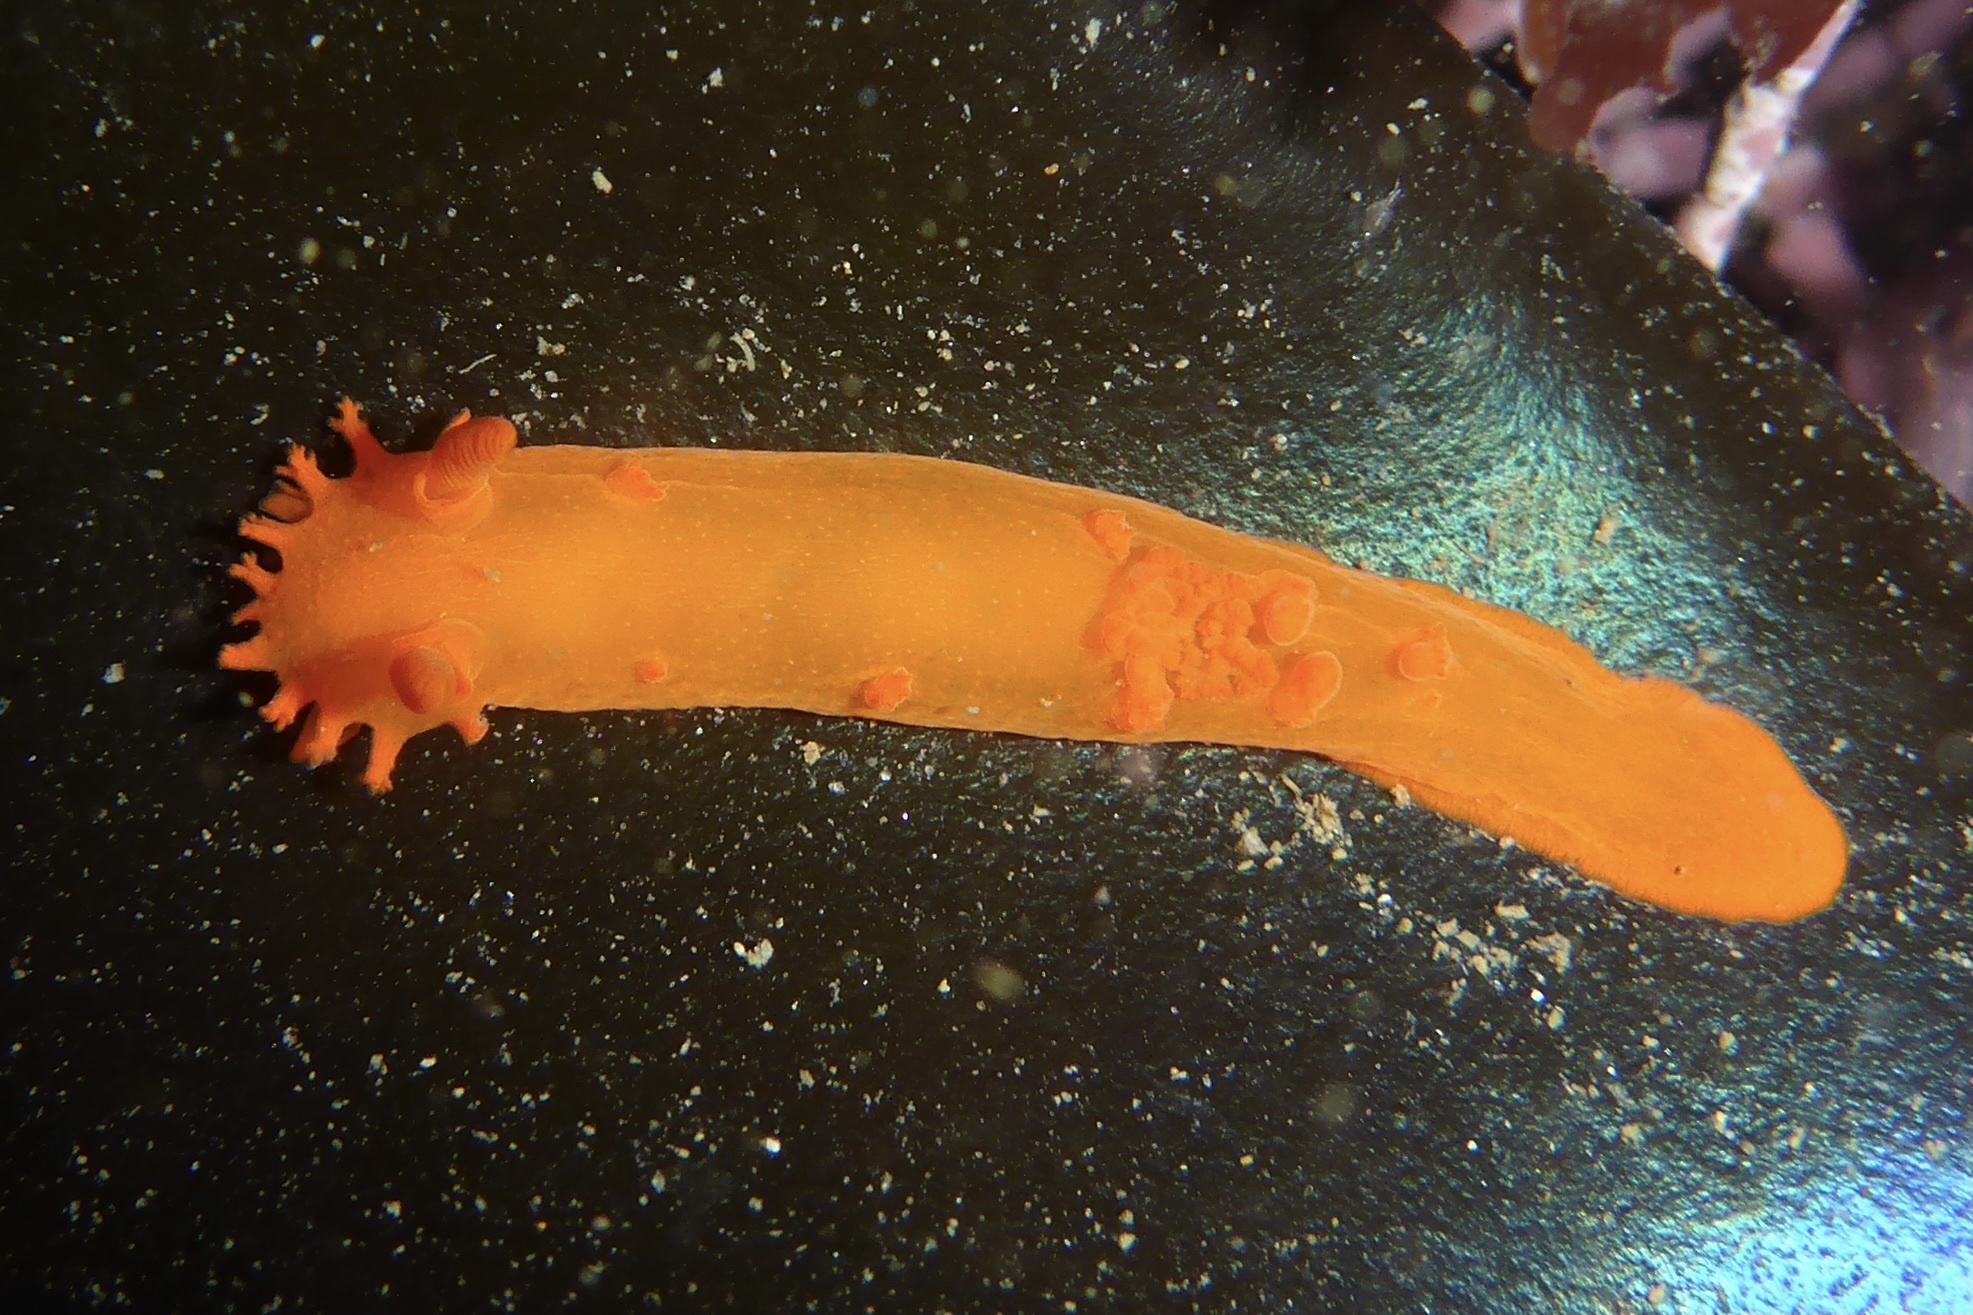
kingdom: Animalia
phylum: Mollusca
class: Gastropoda
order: Nudibranchia
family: Polyceridae
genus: Triopha
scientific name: Triopha maculata
